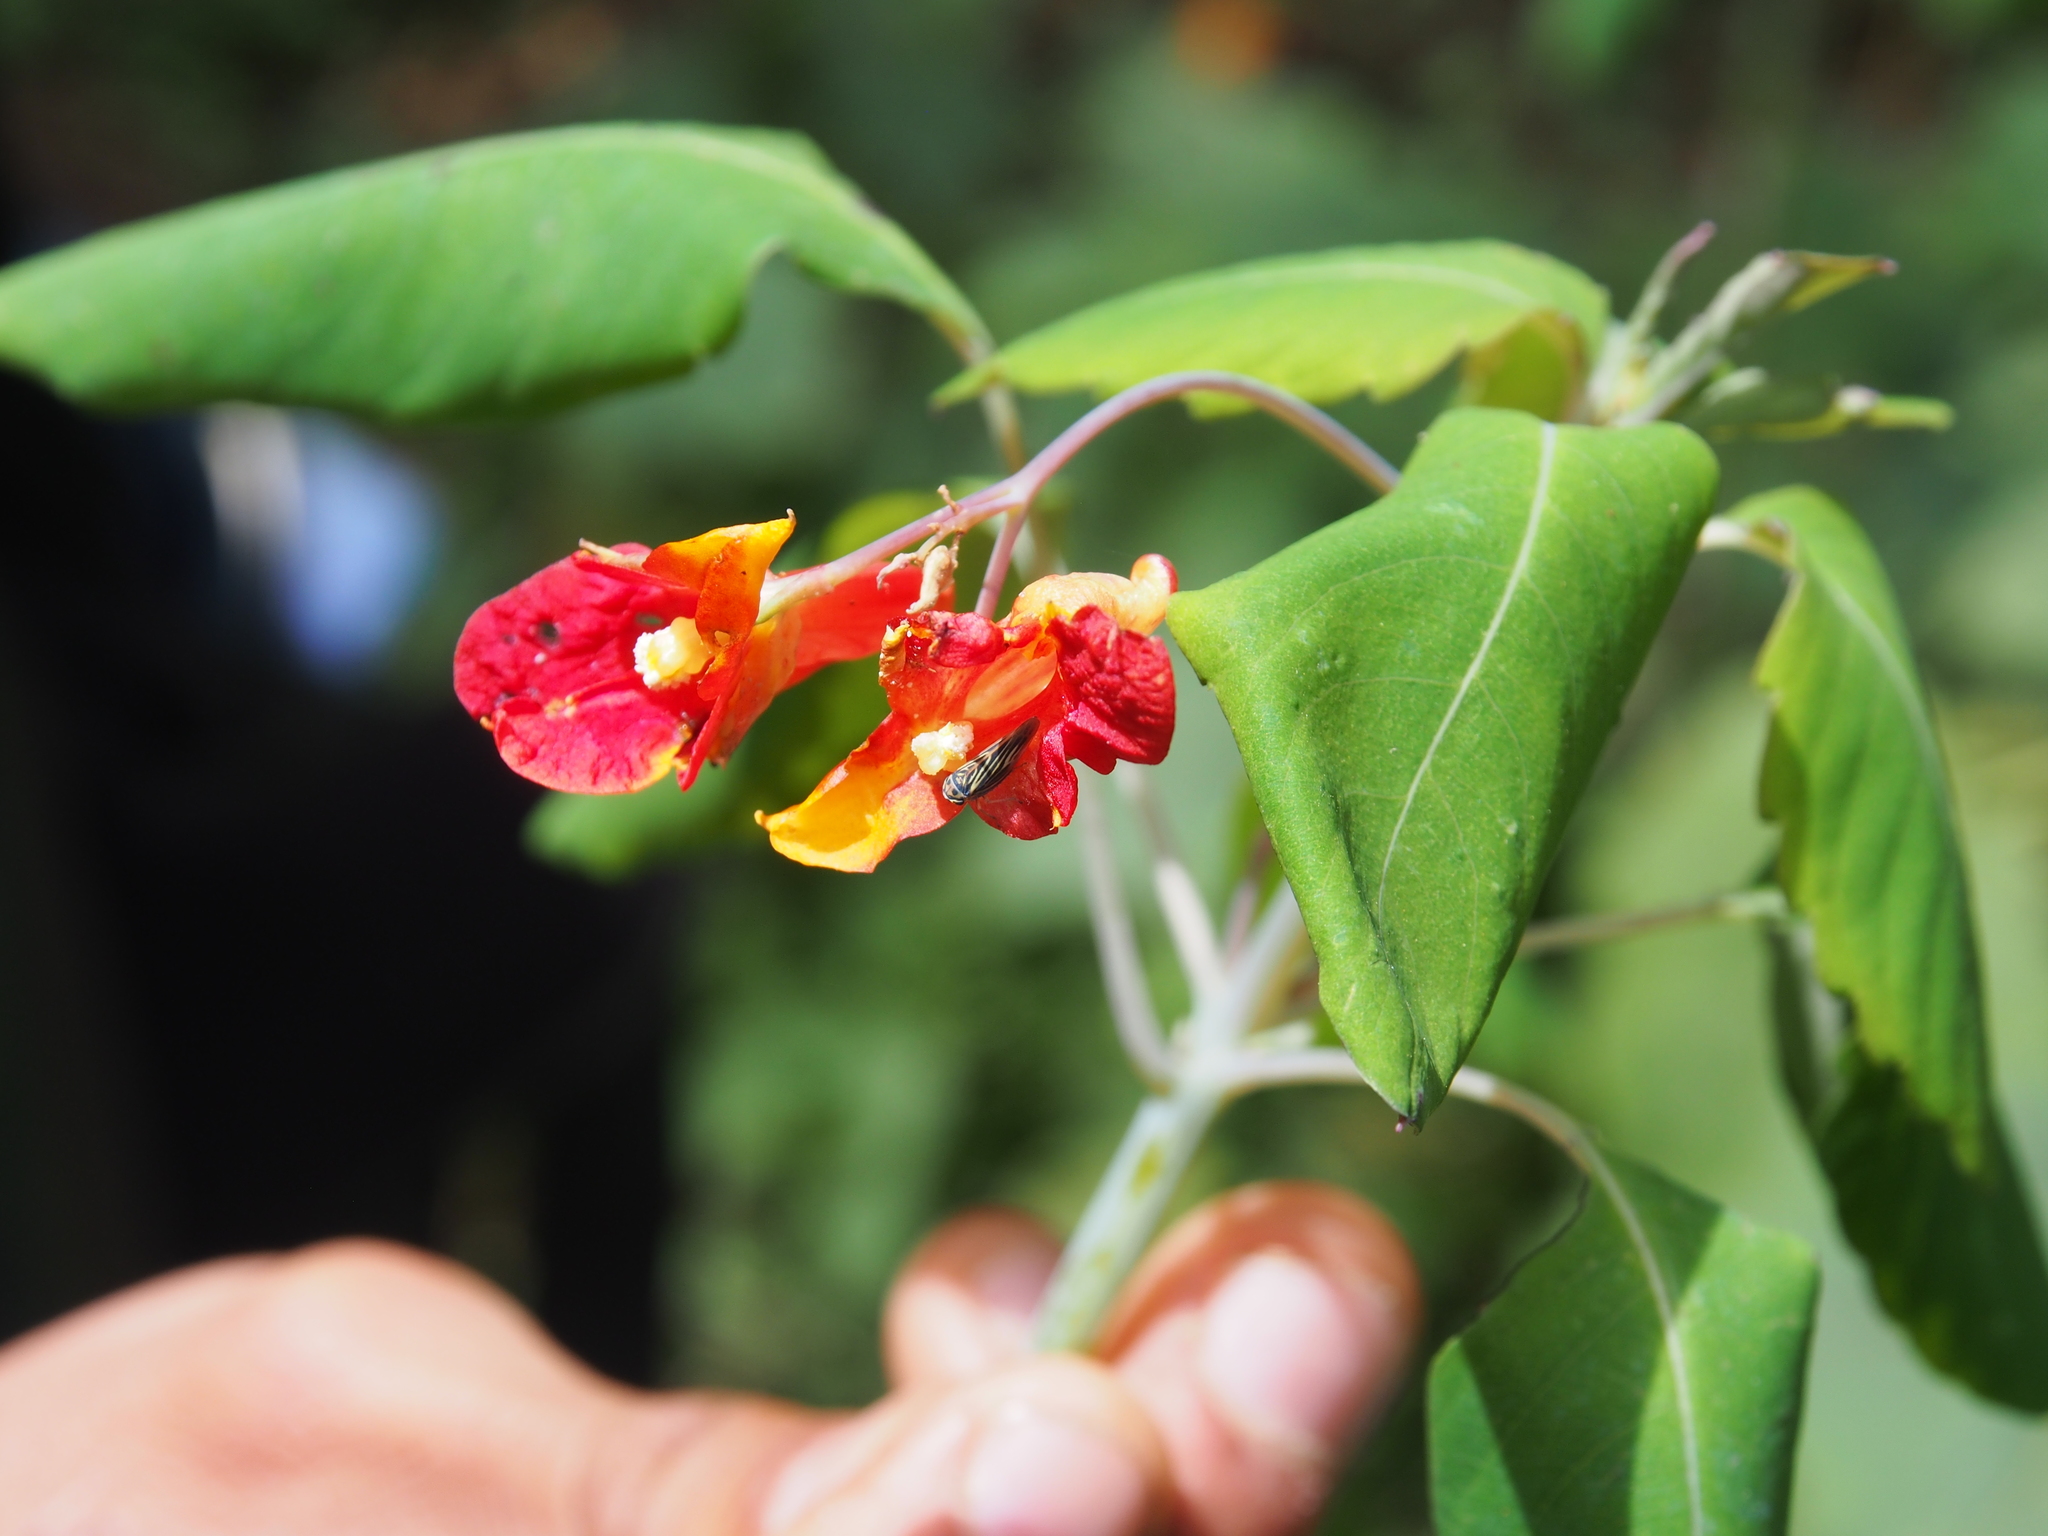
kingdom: Plantae
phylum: Tracheophyta
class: Magnoliopsida
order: Ericales
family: Balsaminaceae
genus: Impatiens
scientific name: Impatiens turrialbana
